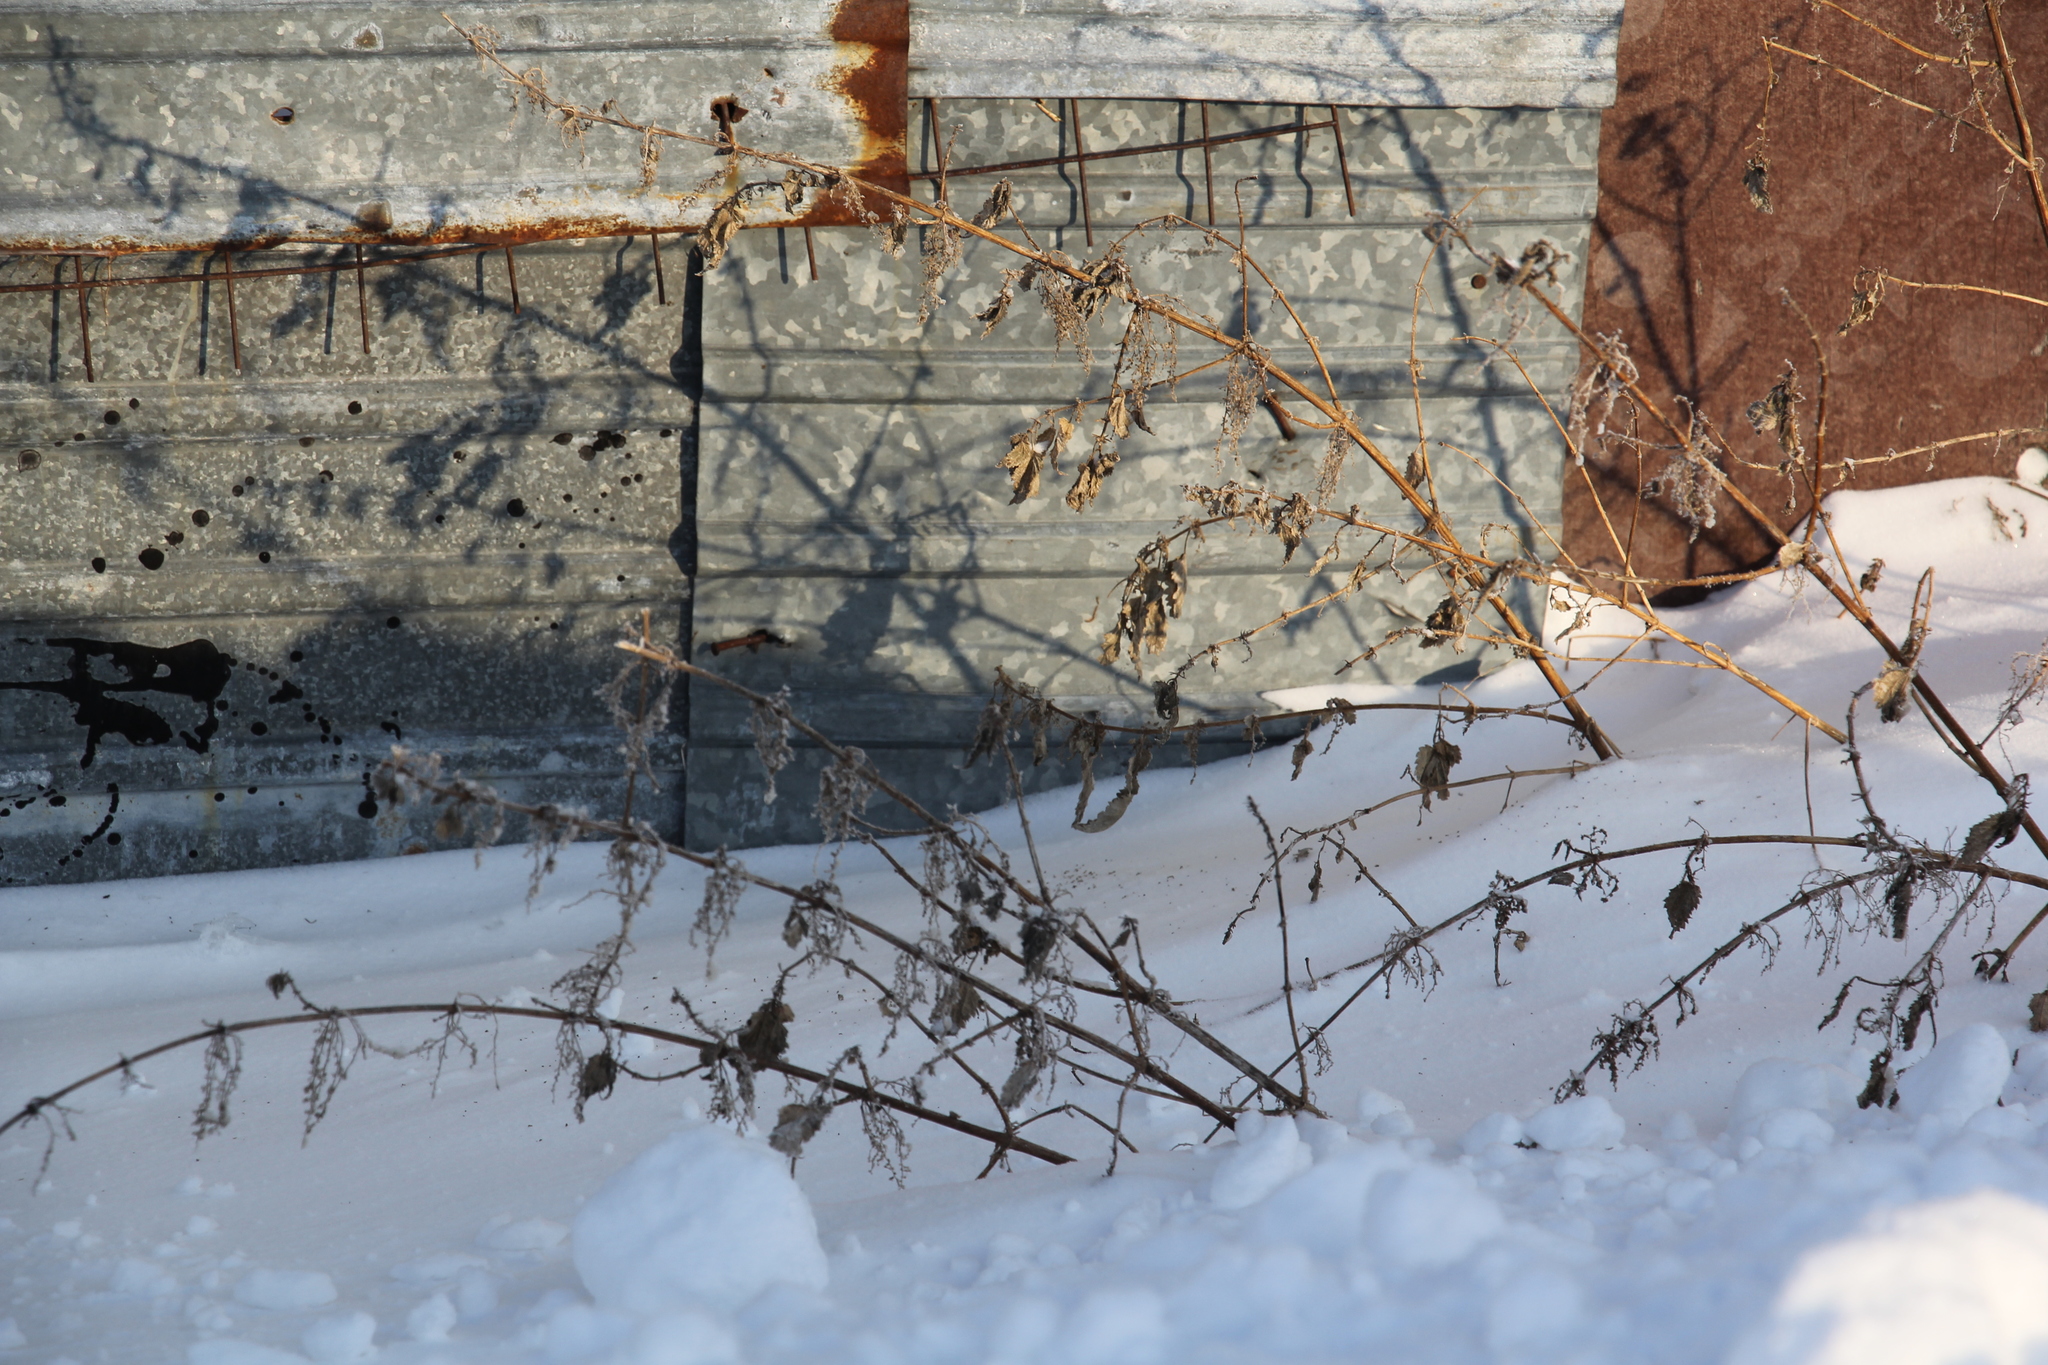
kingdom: Plantae
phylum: Tracheophyta
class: Magnoliopsida
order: Rosales
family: Urticaceae
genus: Urtica
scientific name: Urtica dioica
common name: Common nettle
